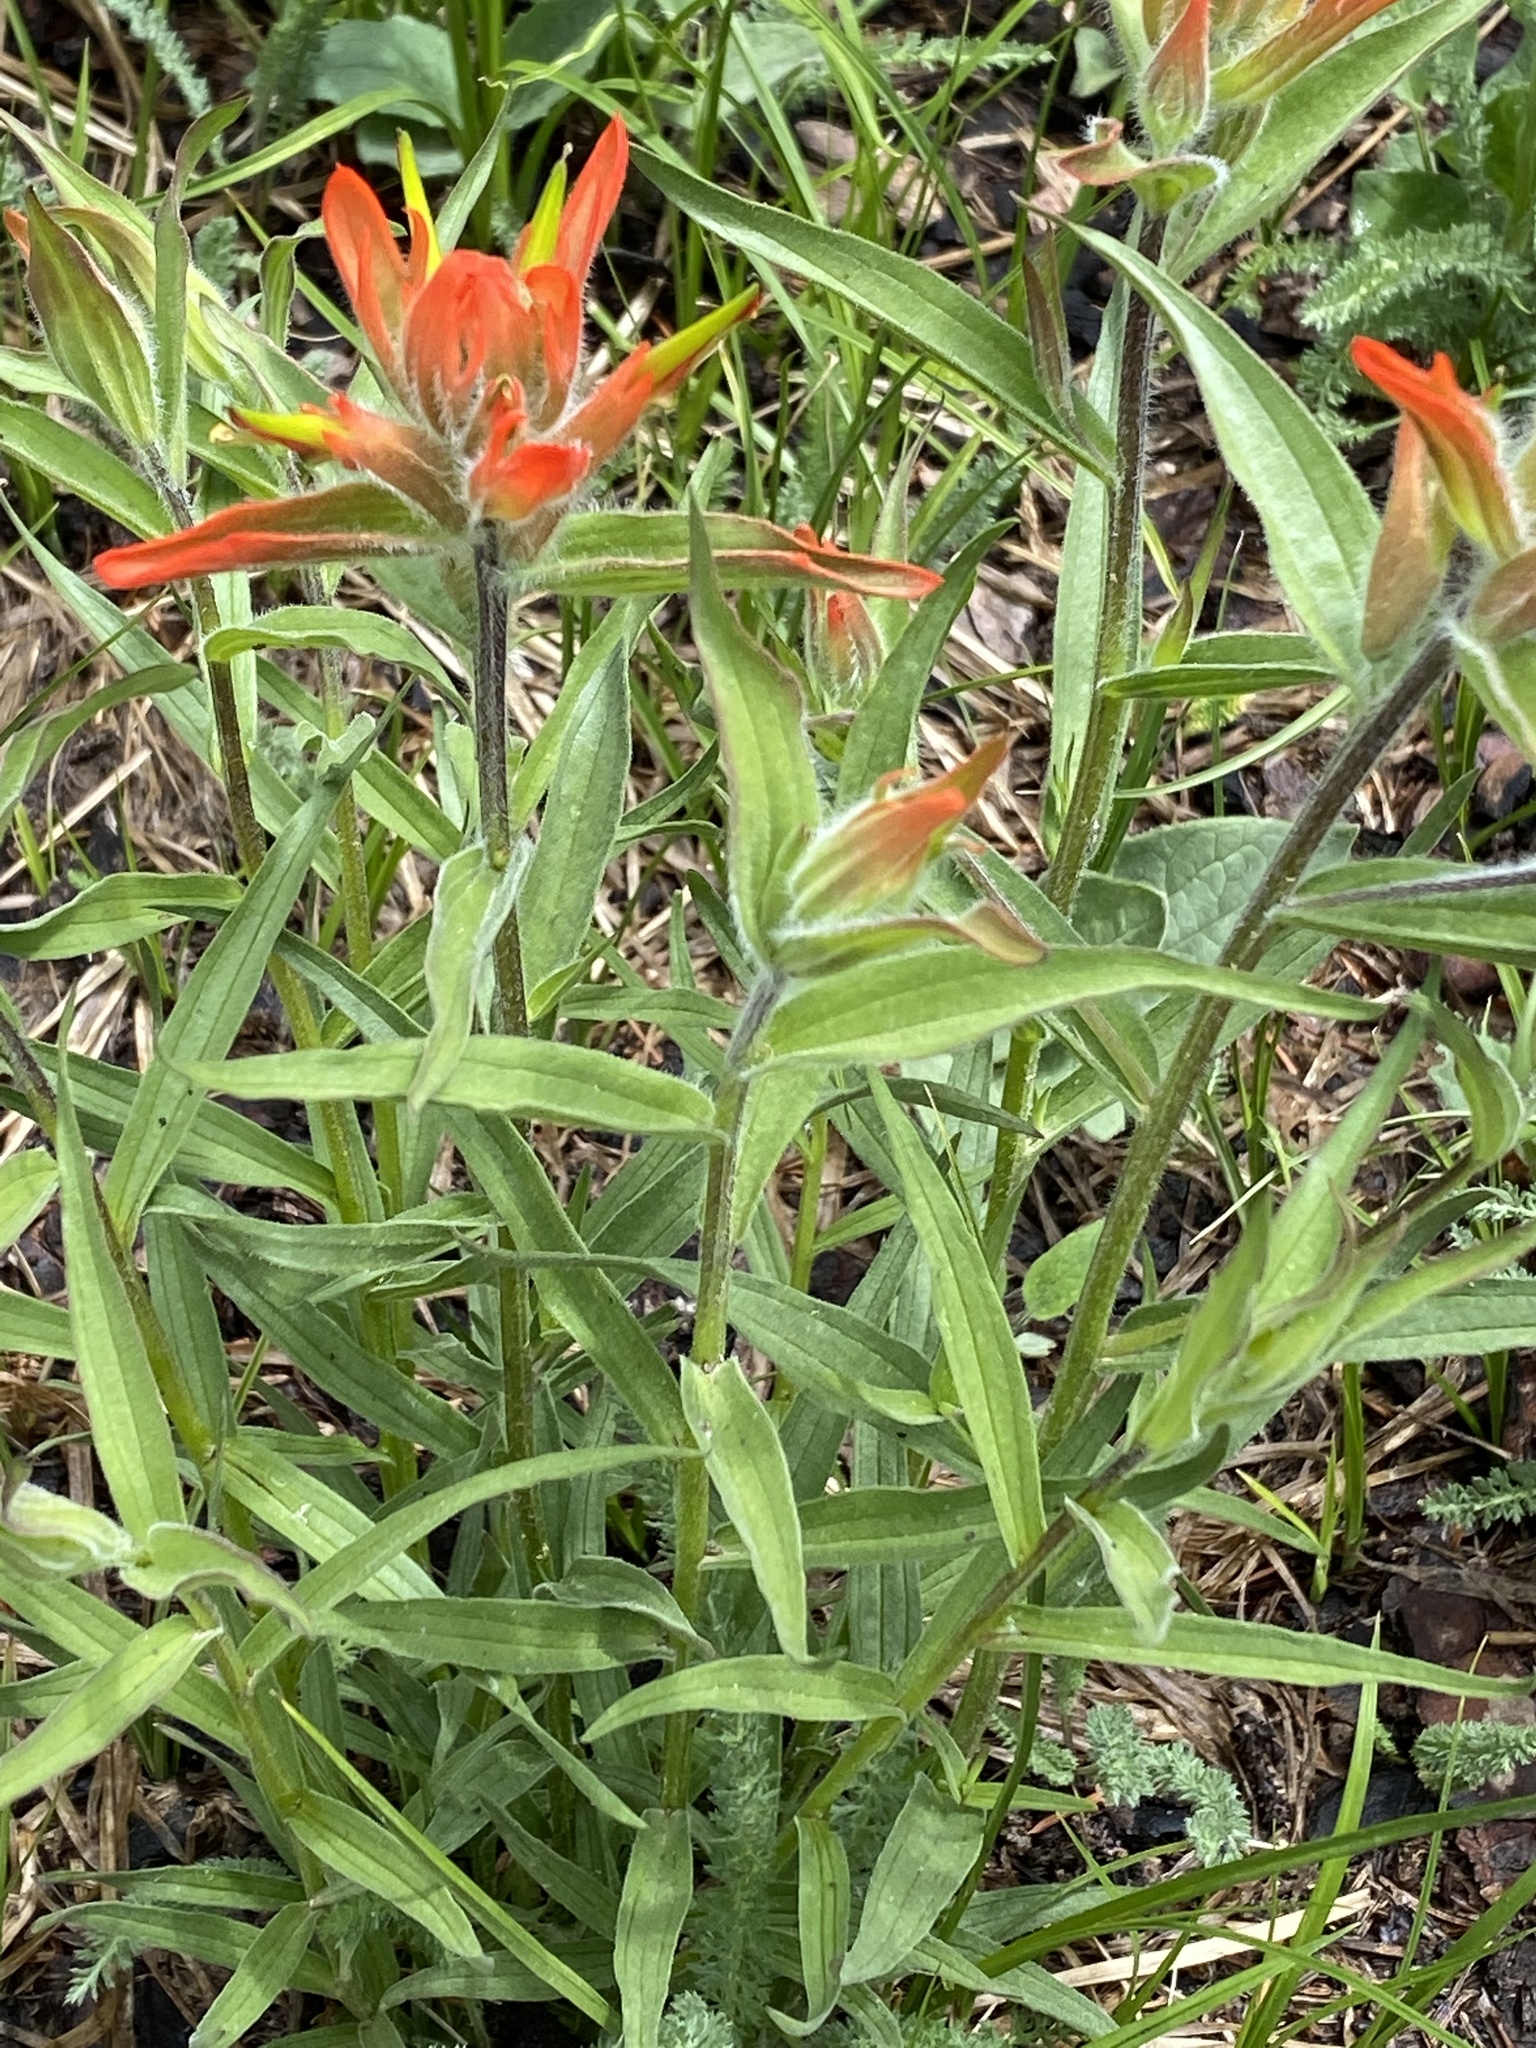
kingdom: Plantae
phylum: Tracheophyta
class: Magnoliopsida
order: Lamiales
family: Orobanchaceae
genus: Castilleja
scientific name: Castilleja miniata
